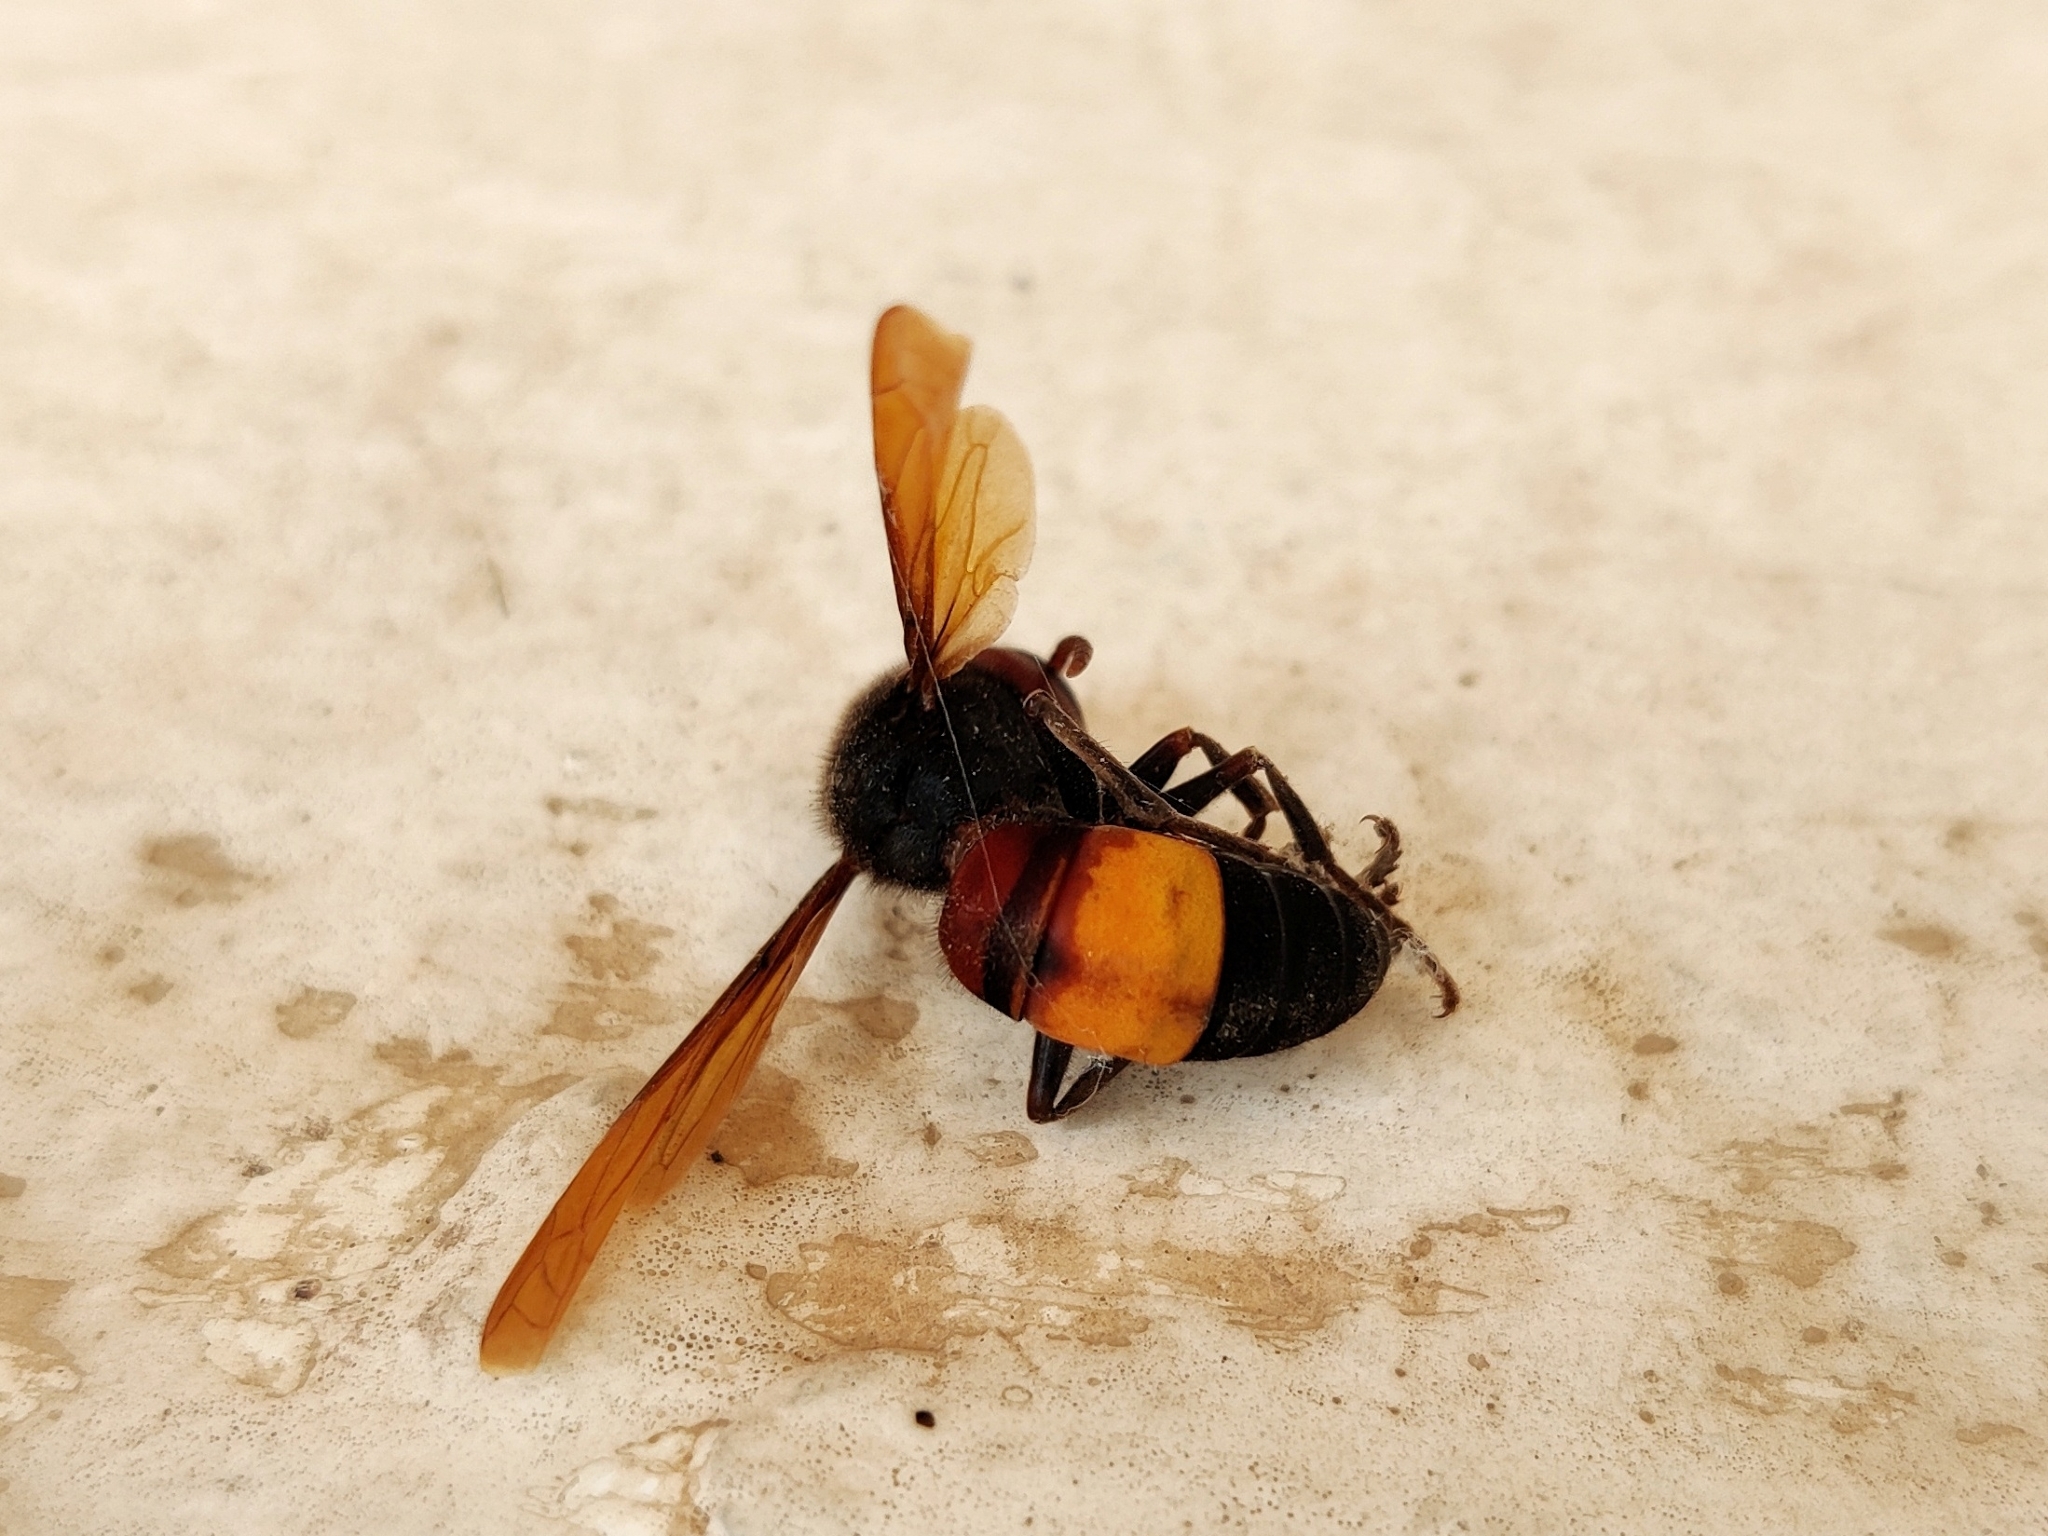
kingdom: Animalia
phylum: Arthropoda
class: Insecta
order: Hymenoptera
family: Vespidae
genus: Vespa
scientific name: Vespa affinis
